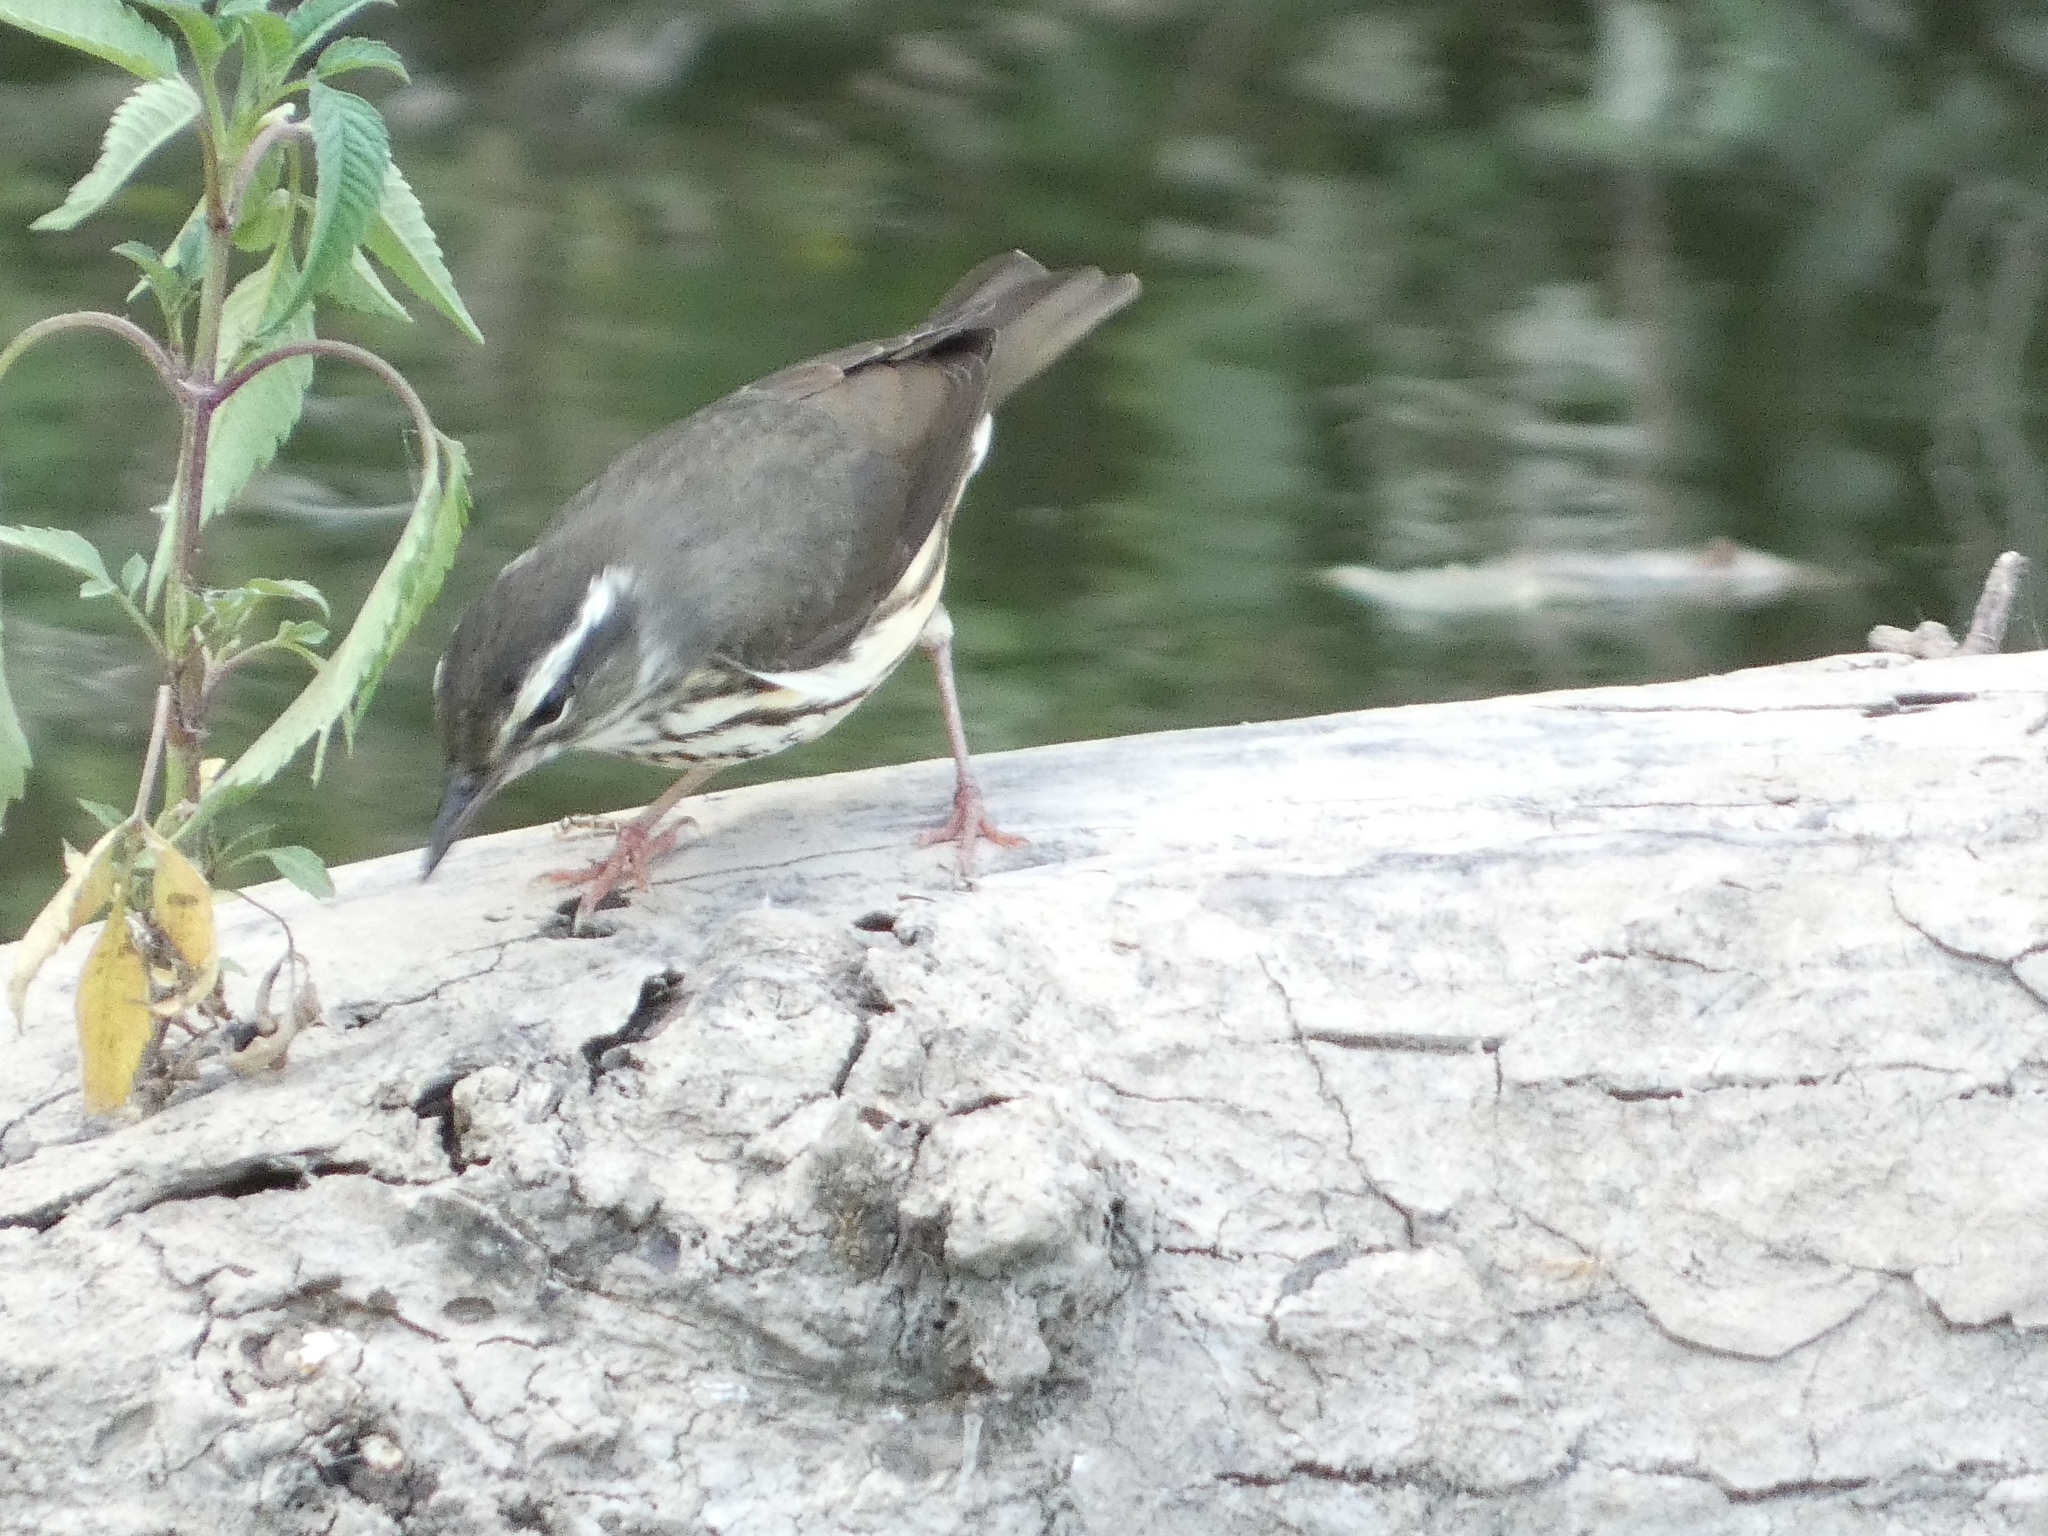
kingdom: Animalia
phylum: Chordata
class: Aves
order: Passeriformes
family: Parulidae
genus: Parkesia
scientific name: Parkesia motacilla
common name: Louisiana waterthrush
